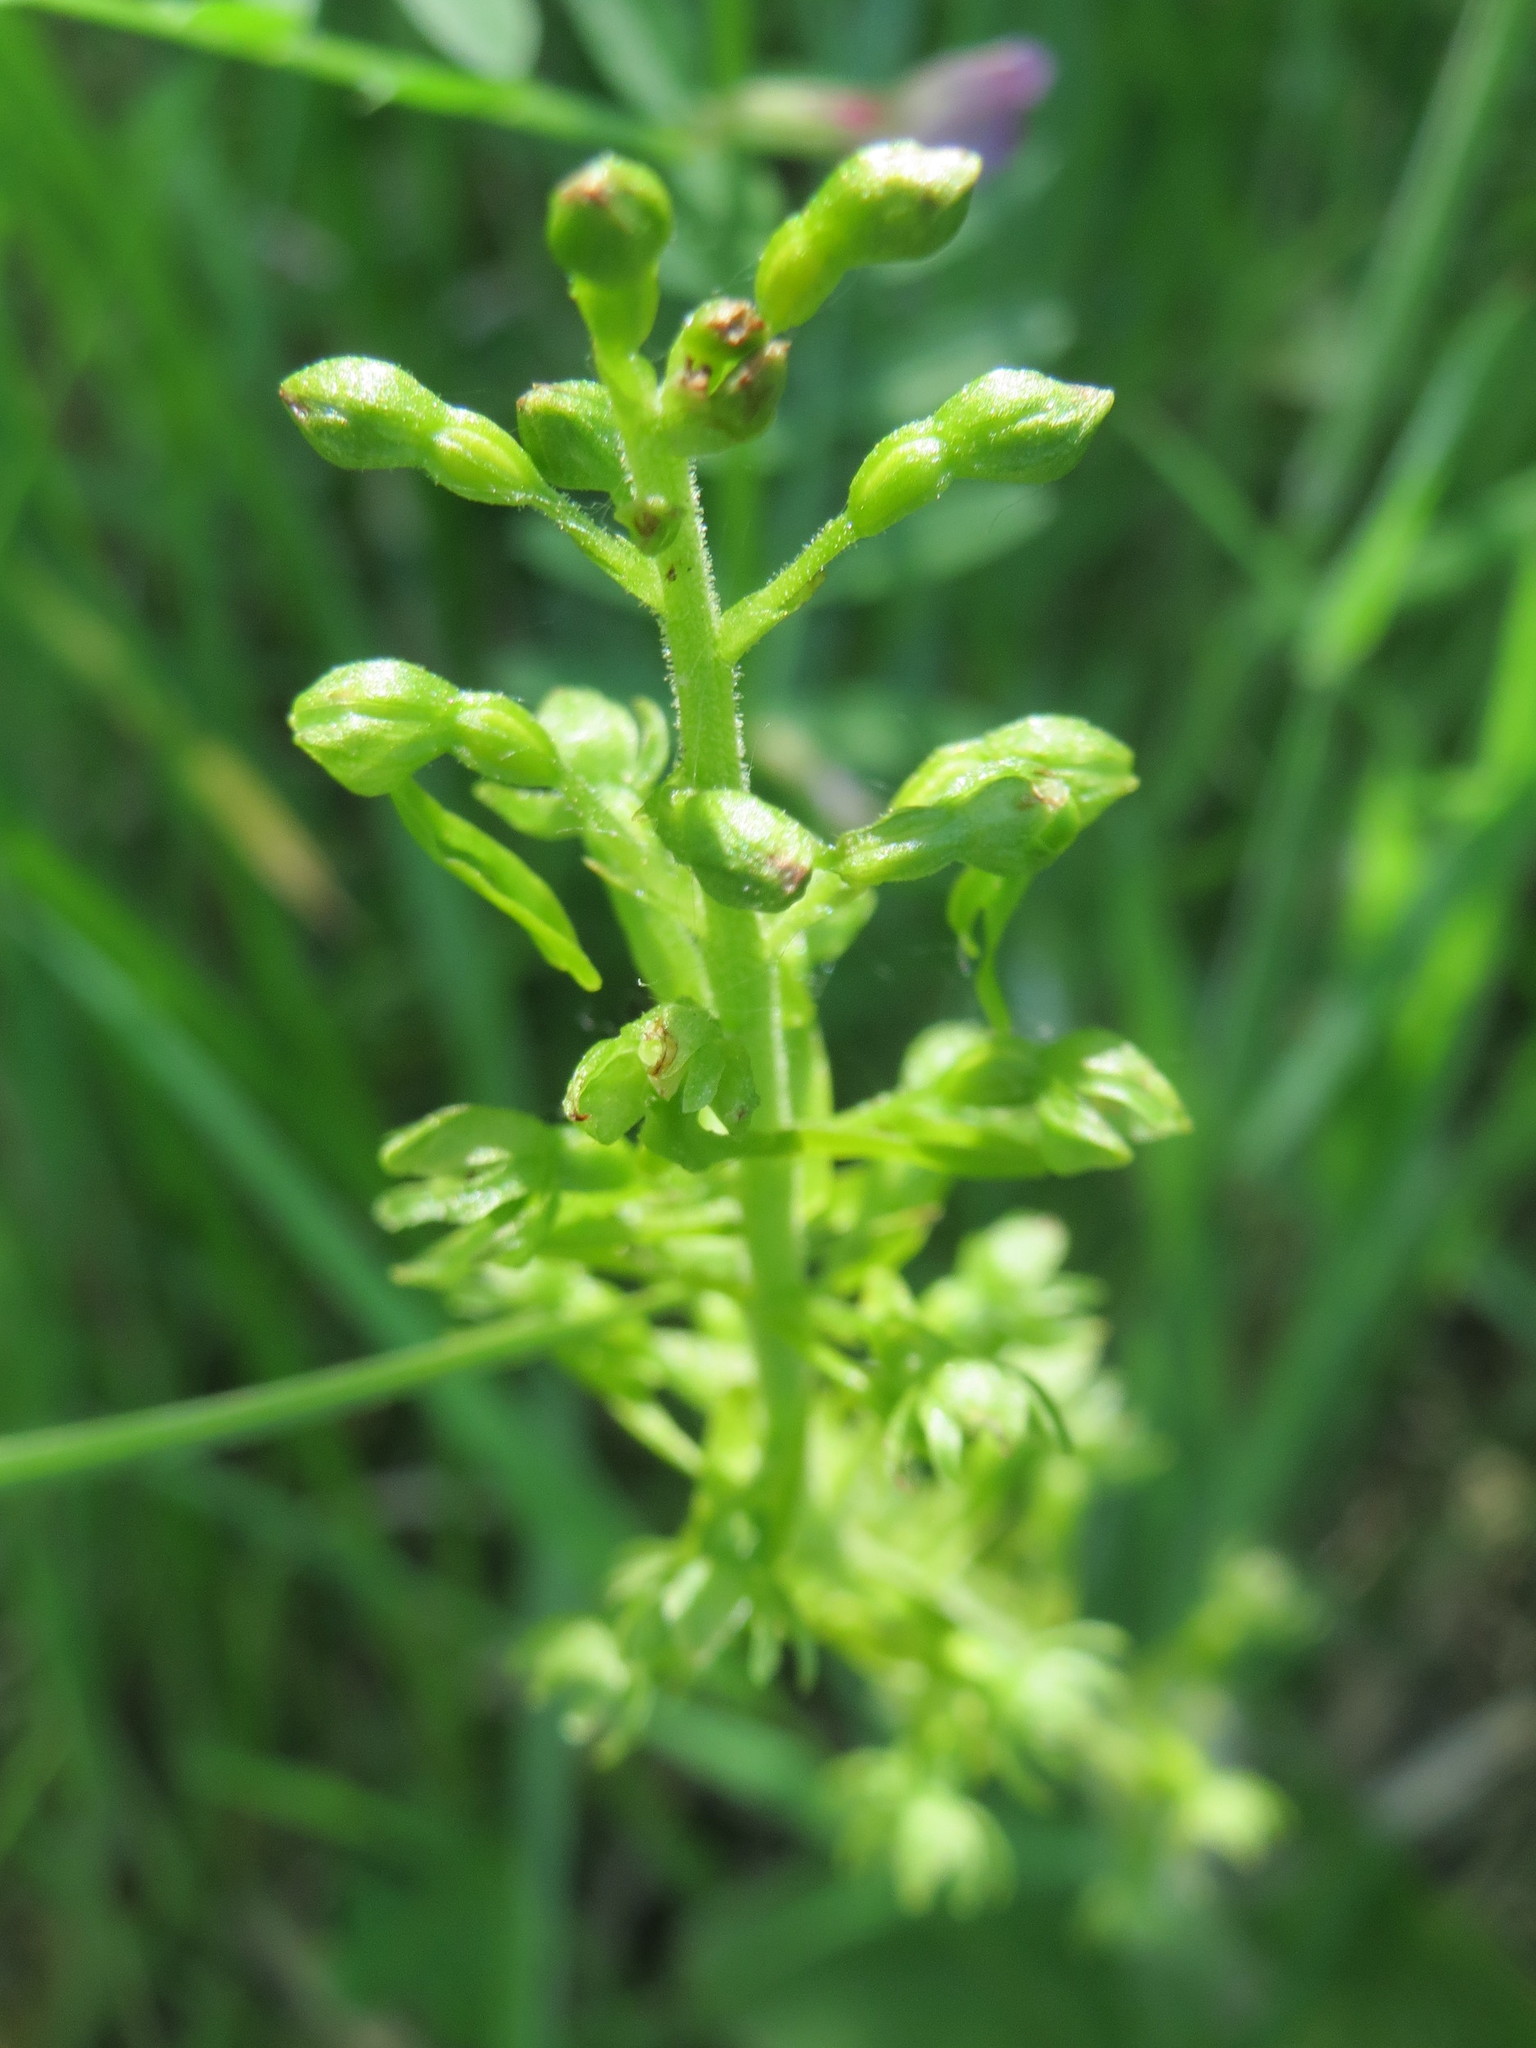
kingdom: Plantae
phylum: Tracheophyta
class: Liliopsida
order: Asparagales
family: Orchidaceae
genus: Neottia
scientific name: Neottia ovata
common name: Common twayblade
